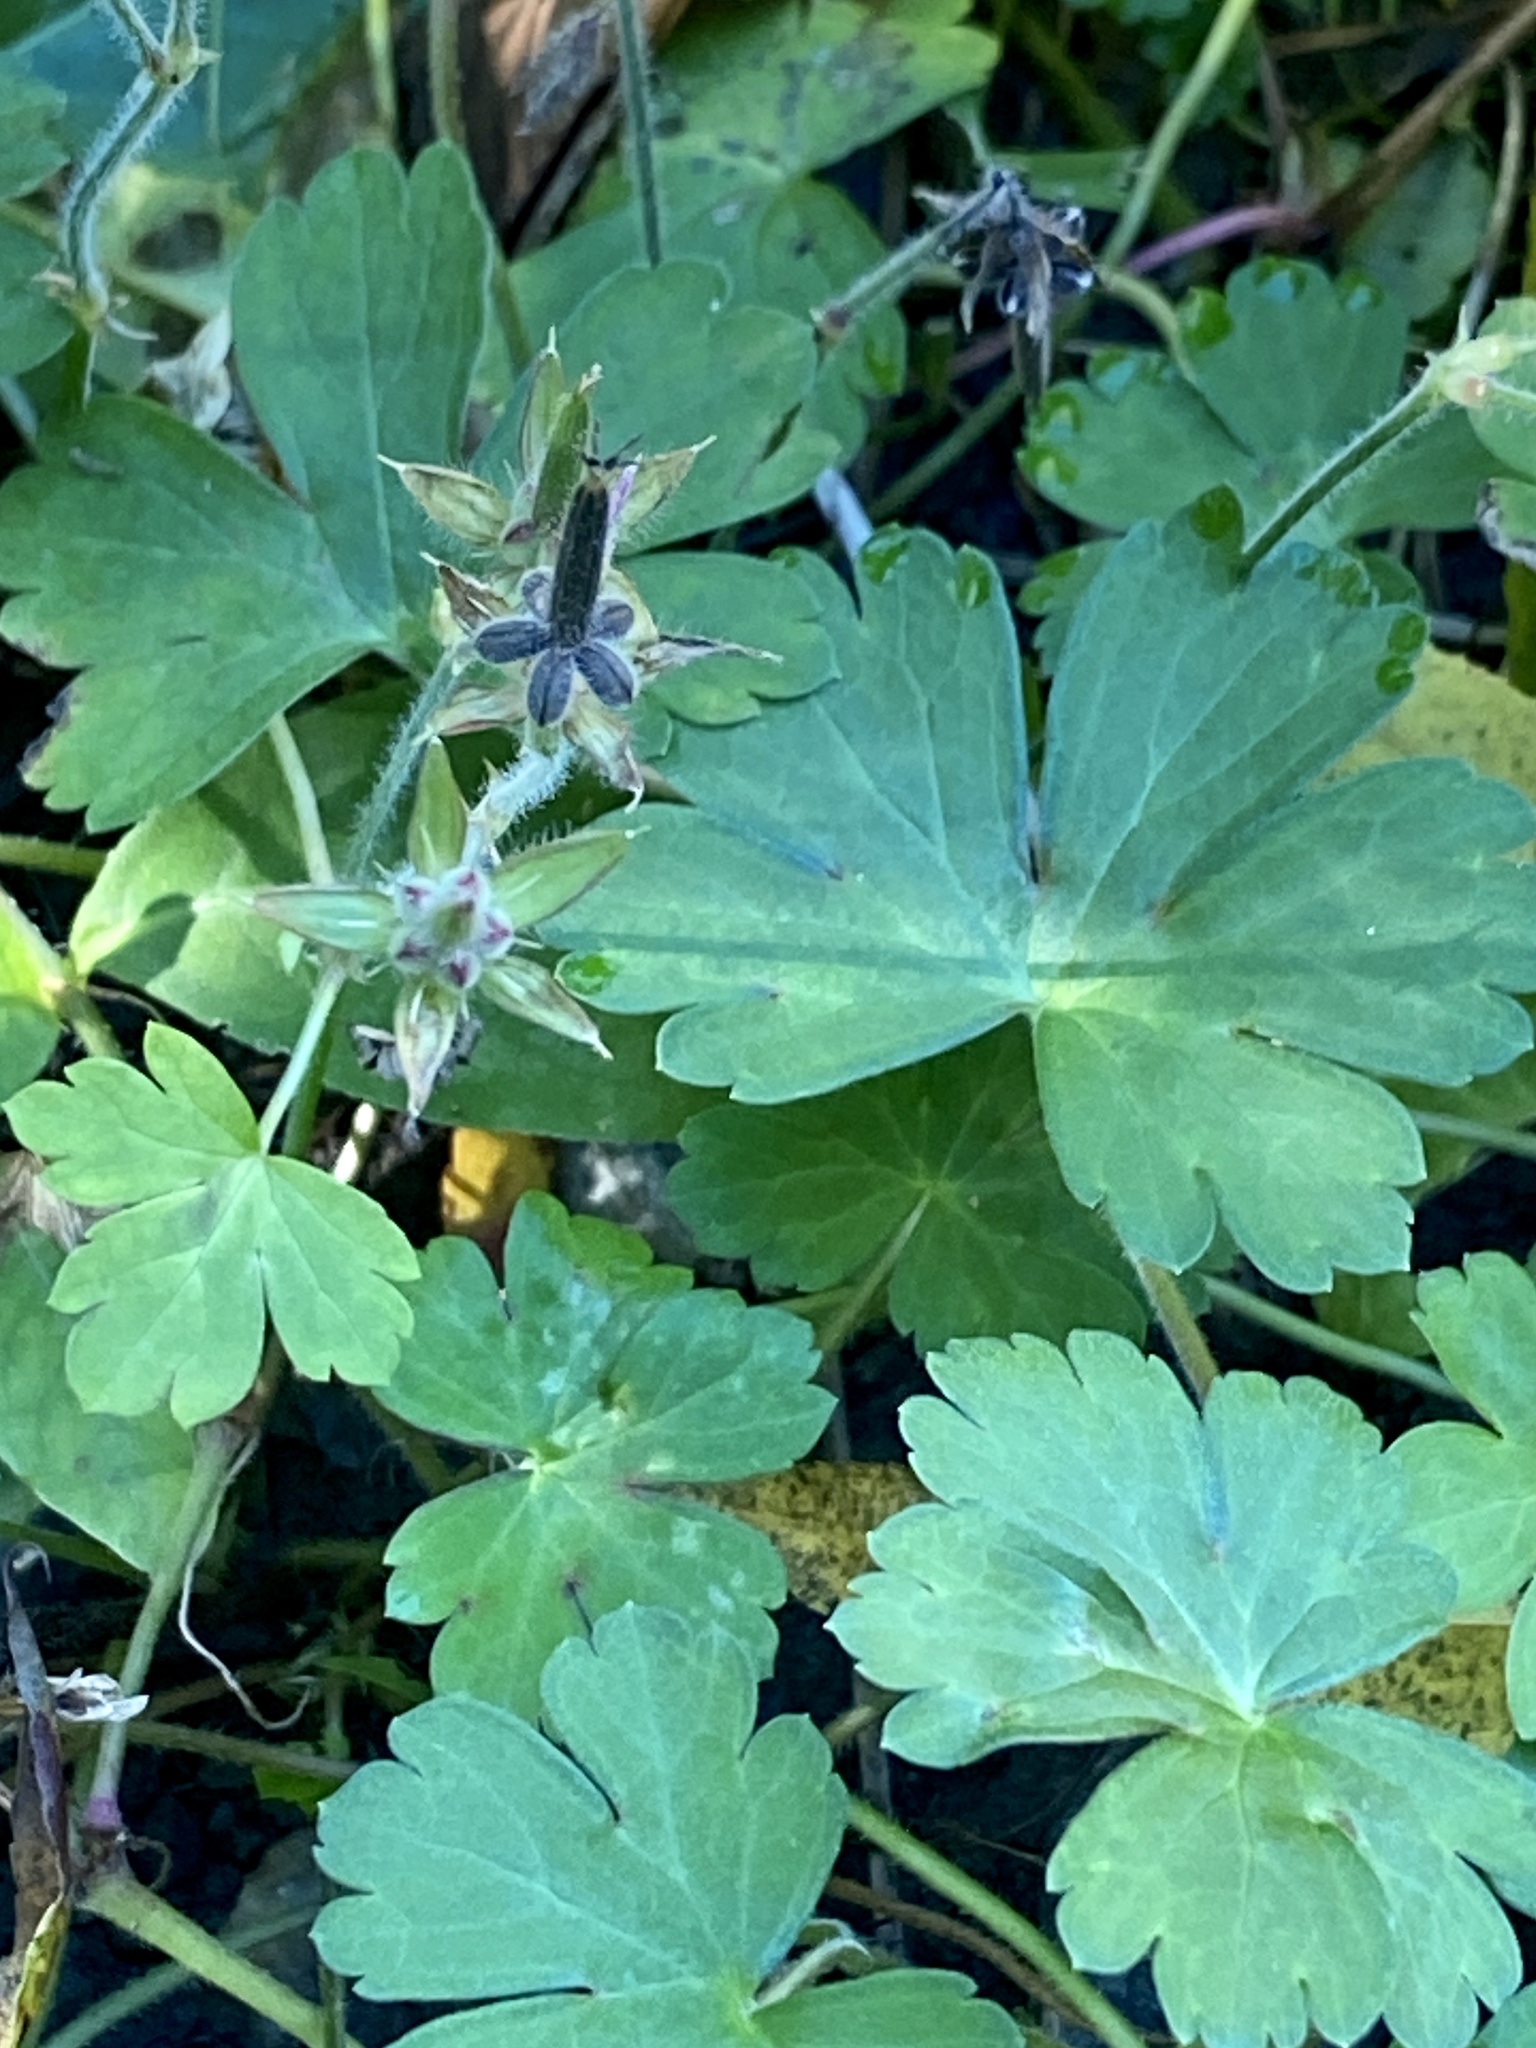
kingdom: Plantae
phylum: Tracheophyta
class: Magnoliopsida
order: Geraniales
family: Geraniaceae
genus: Geranium
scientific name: Geranium thunbergii
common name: Dewdrop crane's-bill
